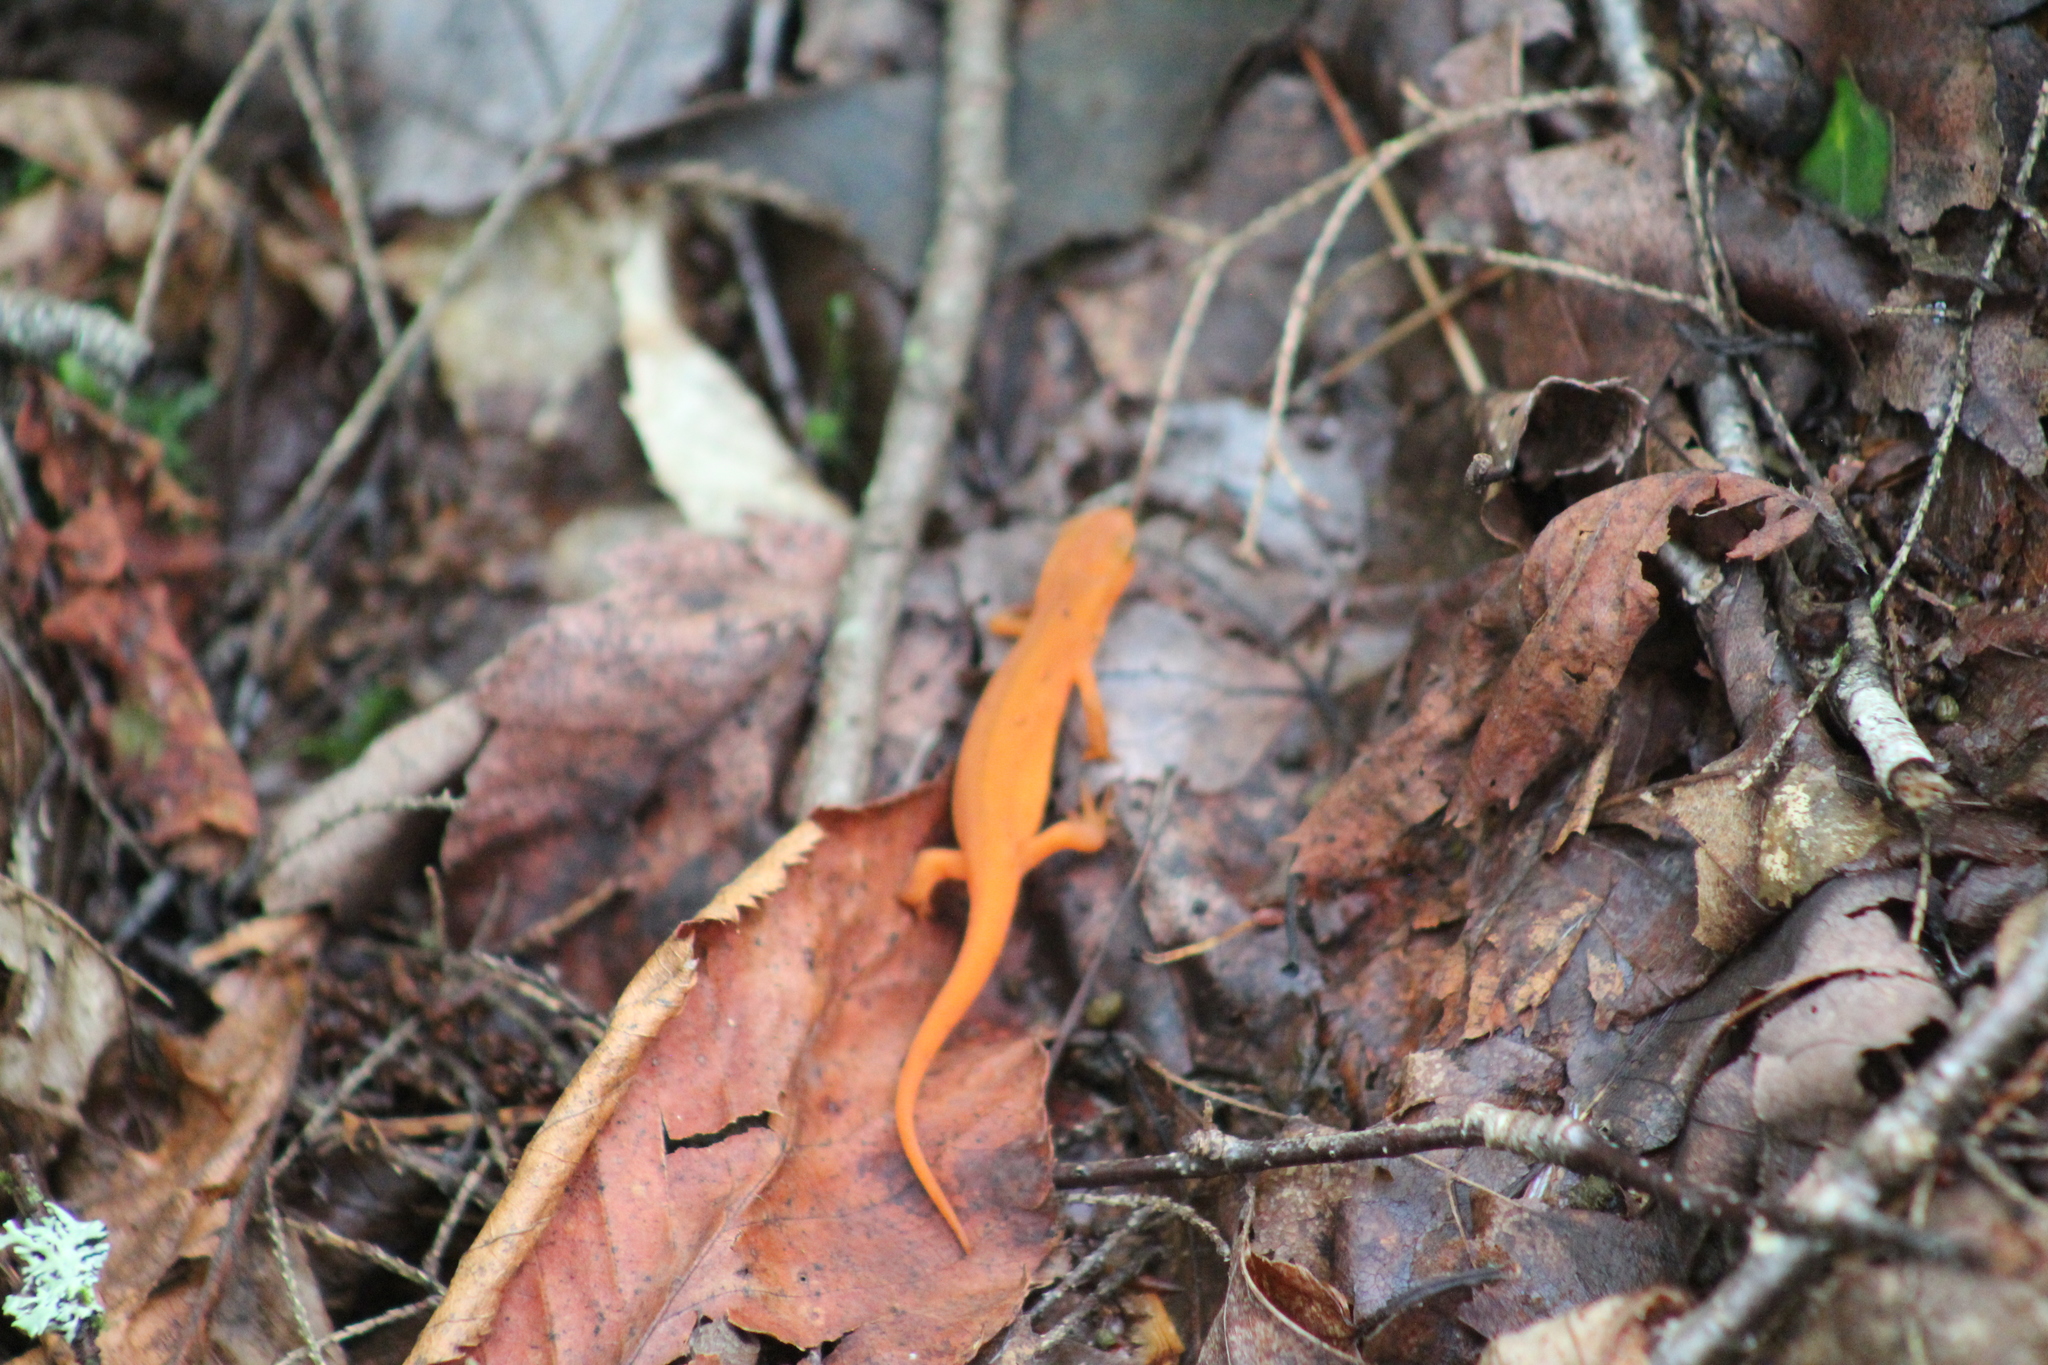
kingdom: Animalia
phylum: Chordata
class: Amphibia
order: Caudata
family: Salamandridae
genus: Notophthalmus
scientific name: Notophthalmus viridescens
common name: Eastern newt
